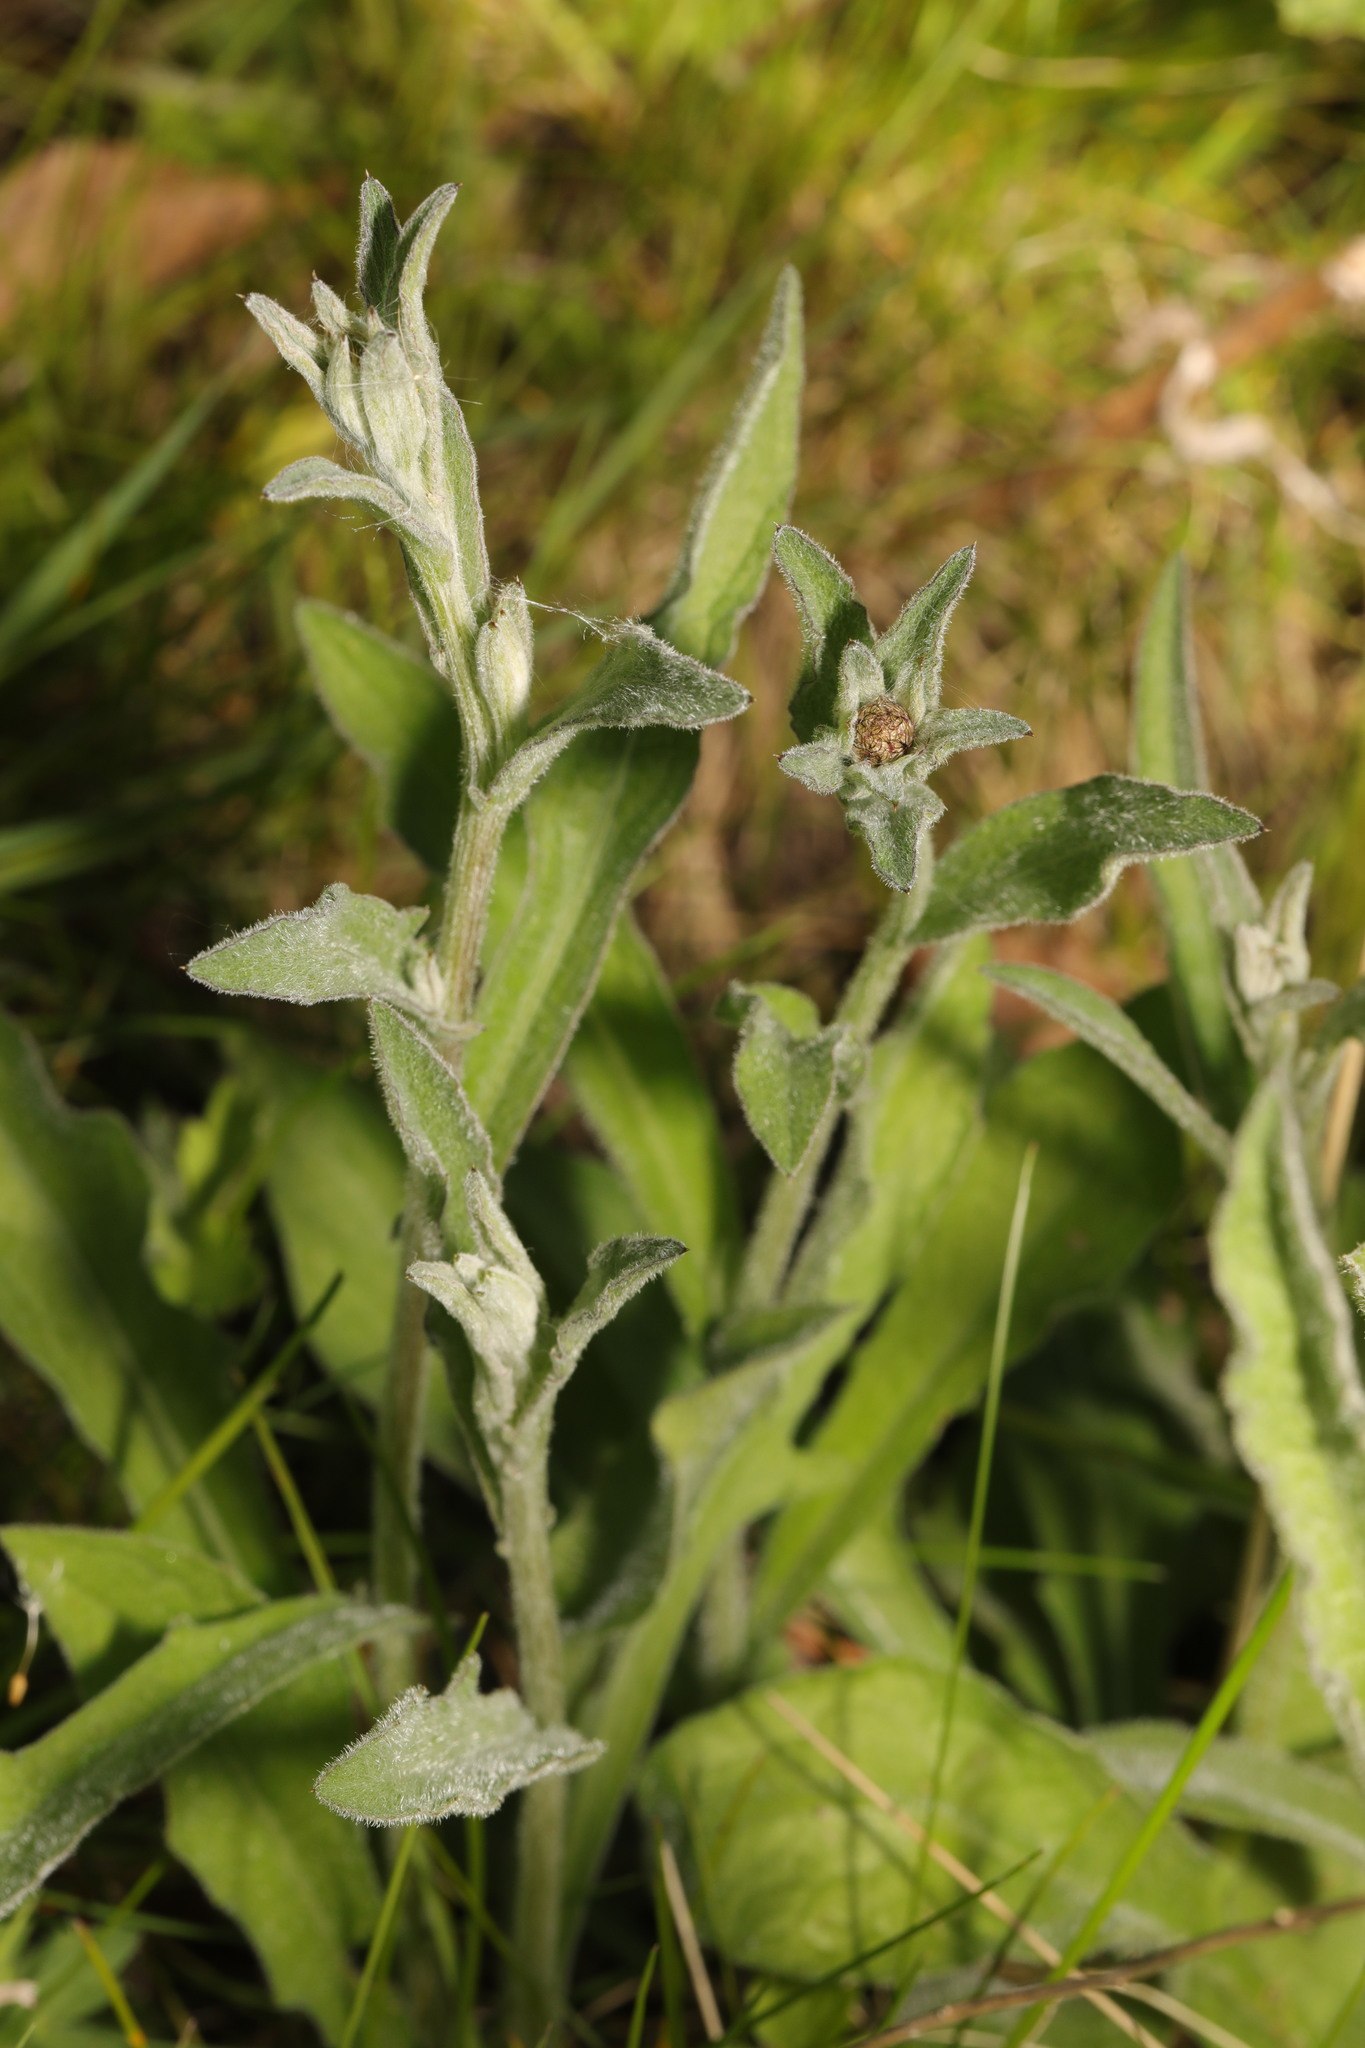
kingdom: Plantae
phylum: Tracheophyta
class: Magnoliopsida
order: Asterales
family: Asteraceae
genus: Centaurea
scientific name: Centaurea nigra
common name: Lesser knapweed
